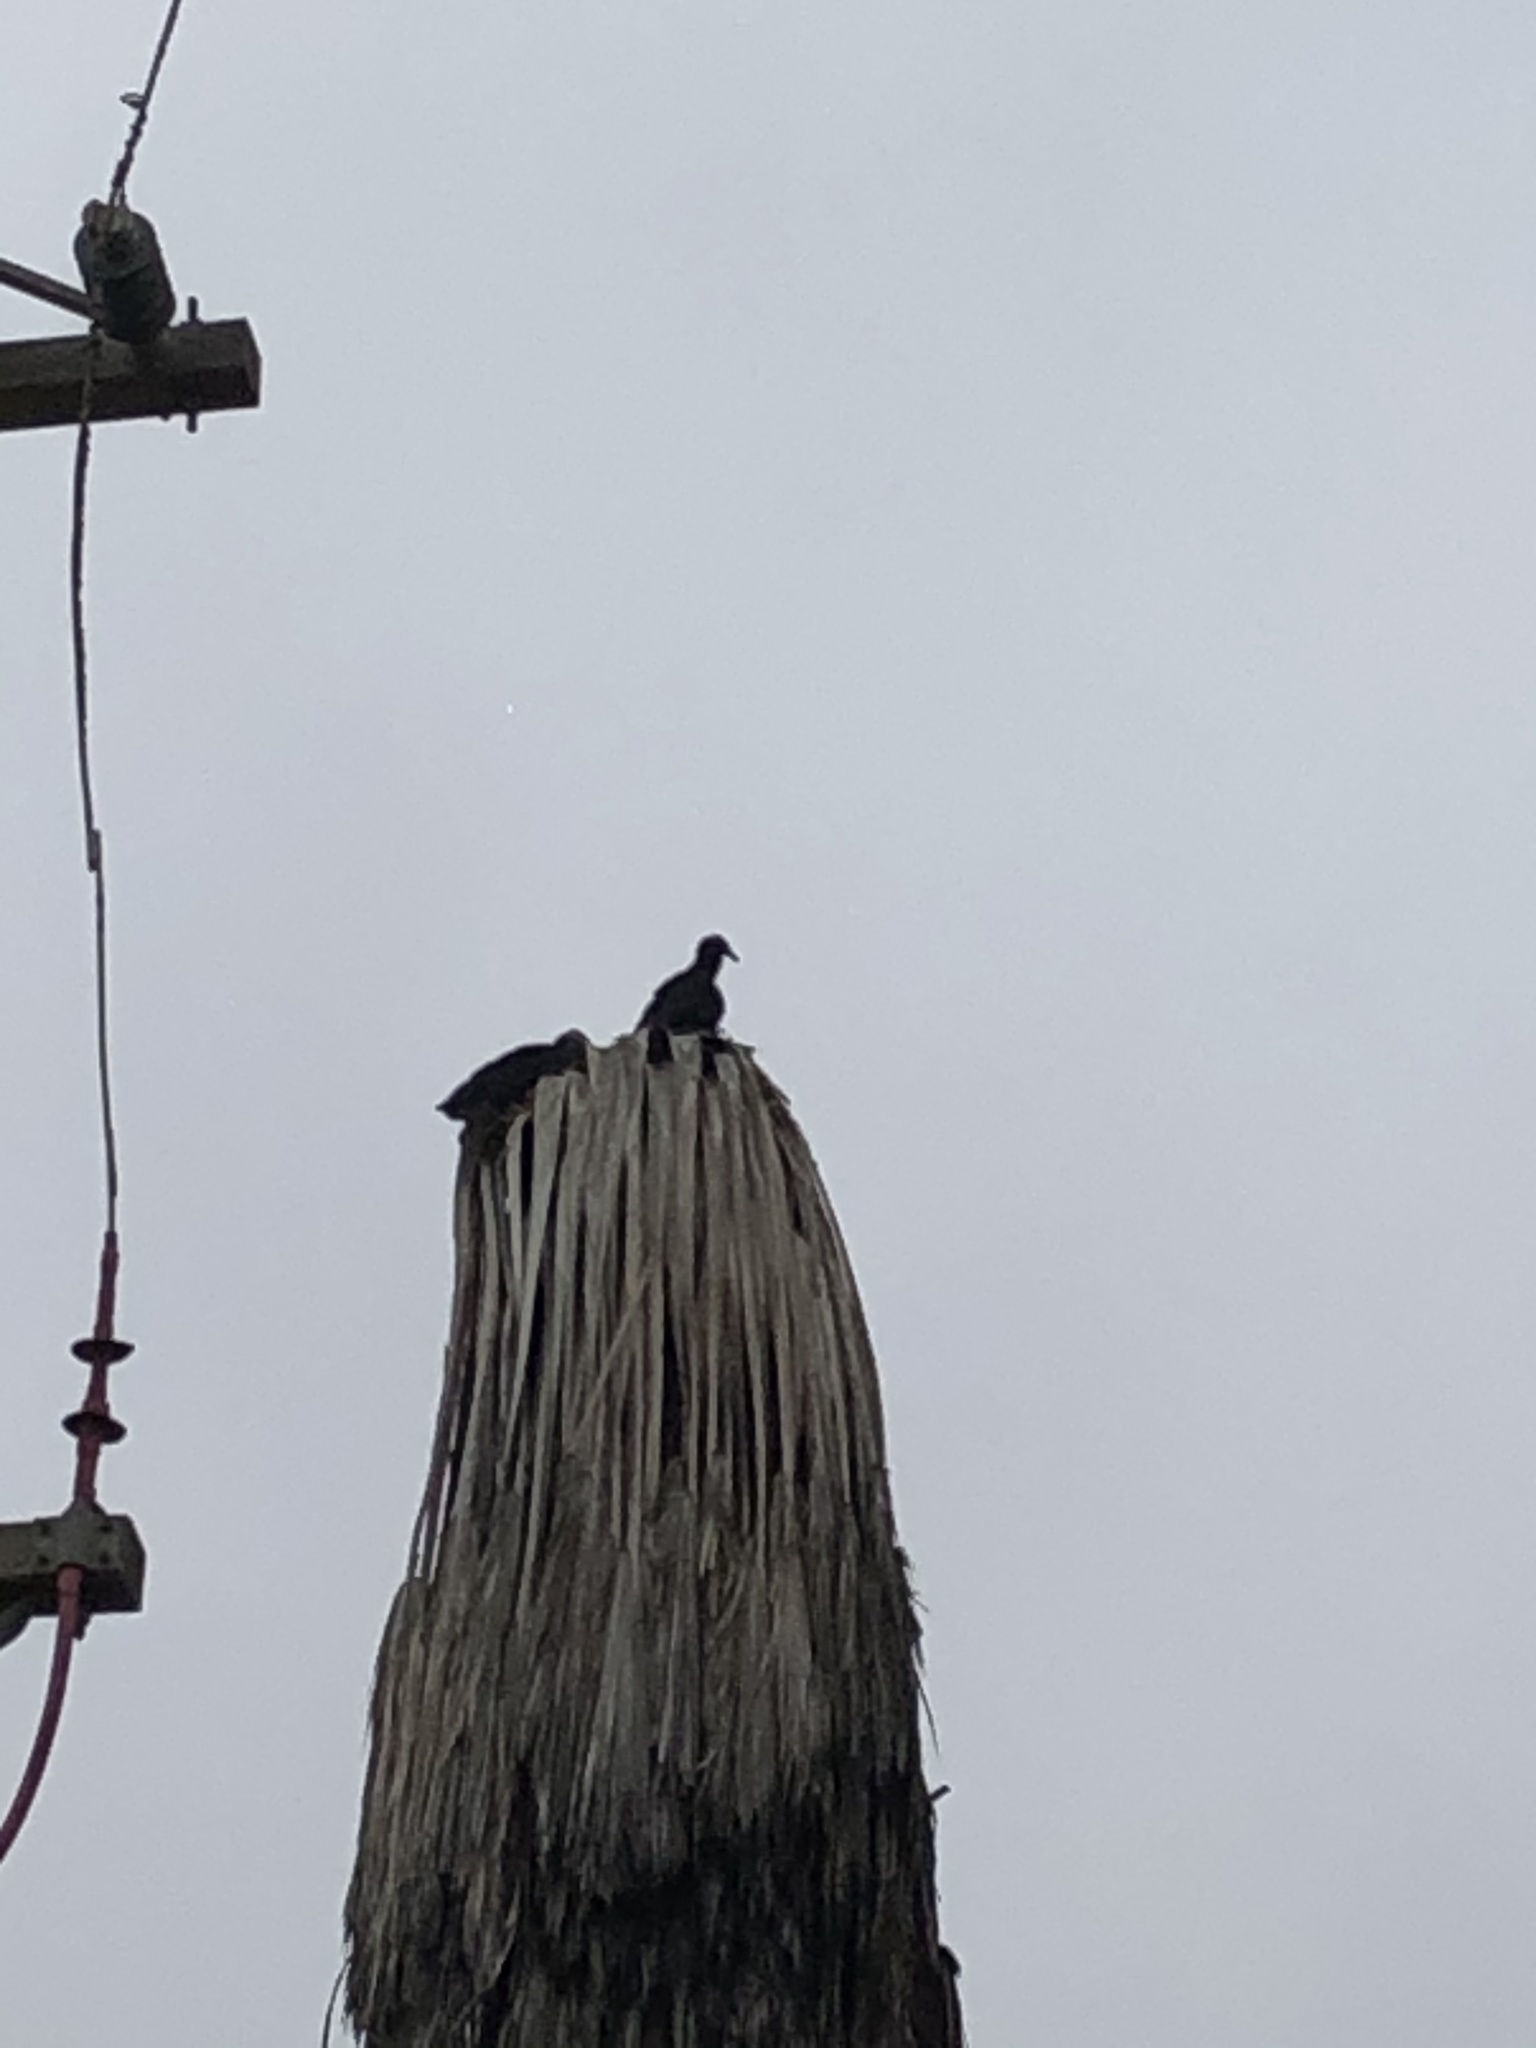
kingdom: Animalia
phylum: Chordata
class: Aves
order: Accipitriformes
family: Cathartidae
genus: Coragyps
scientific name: Coragyps atratus
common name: Black vulture
